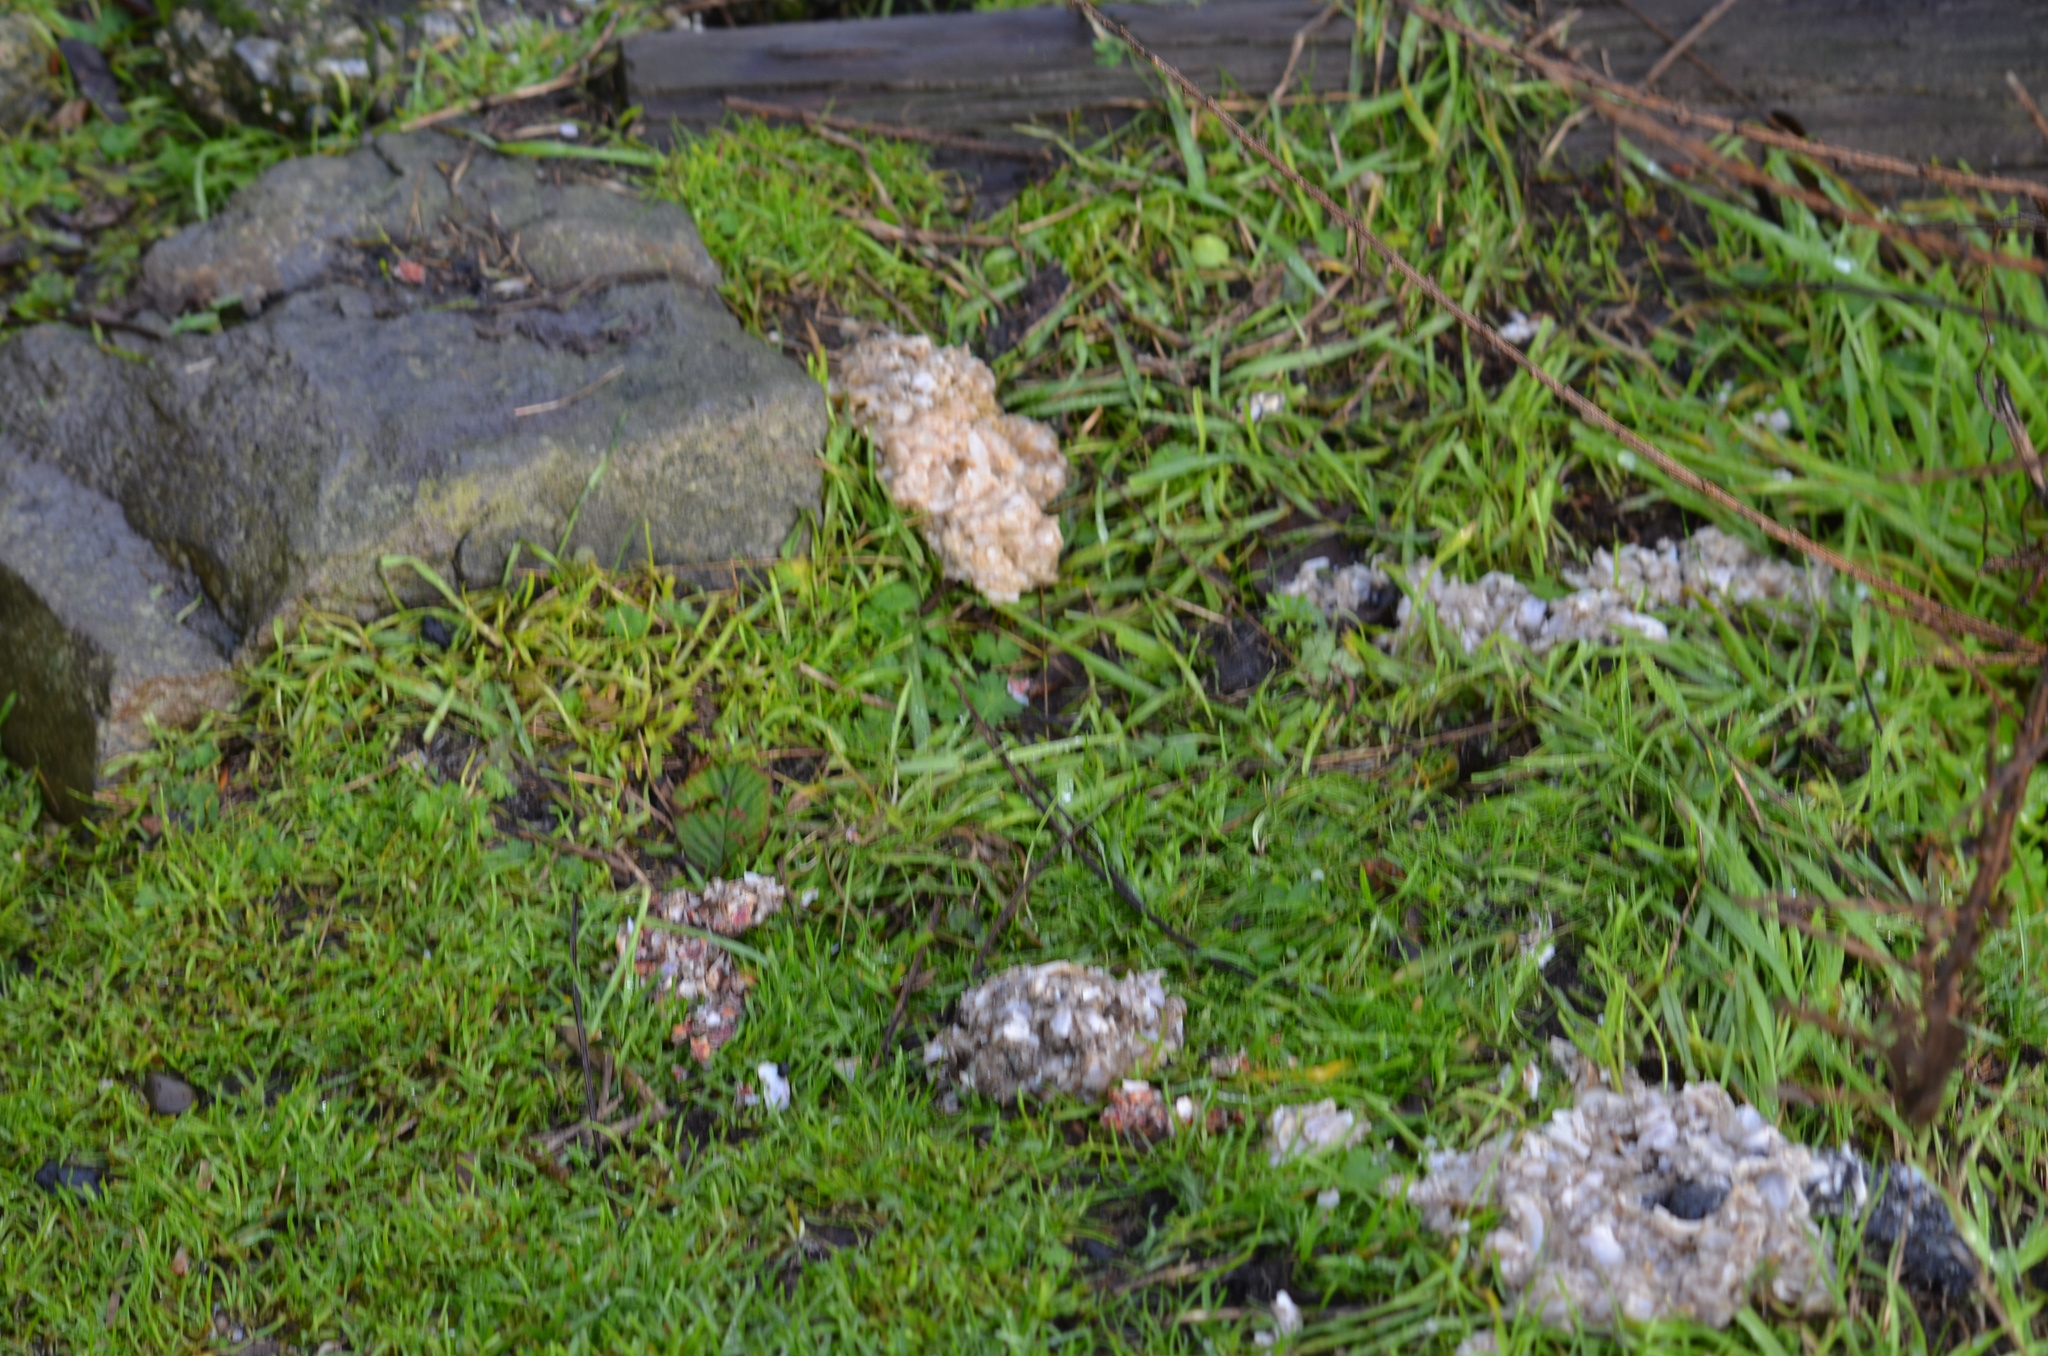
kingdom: Animalia
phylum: Chordata
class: Mammalia
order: Carnivora
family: Mustelidae
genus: Lontra
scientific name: Lontra canadensis
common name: North american river otter
